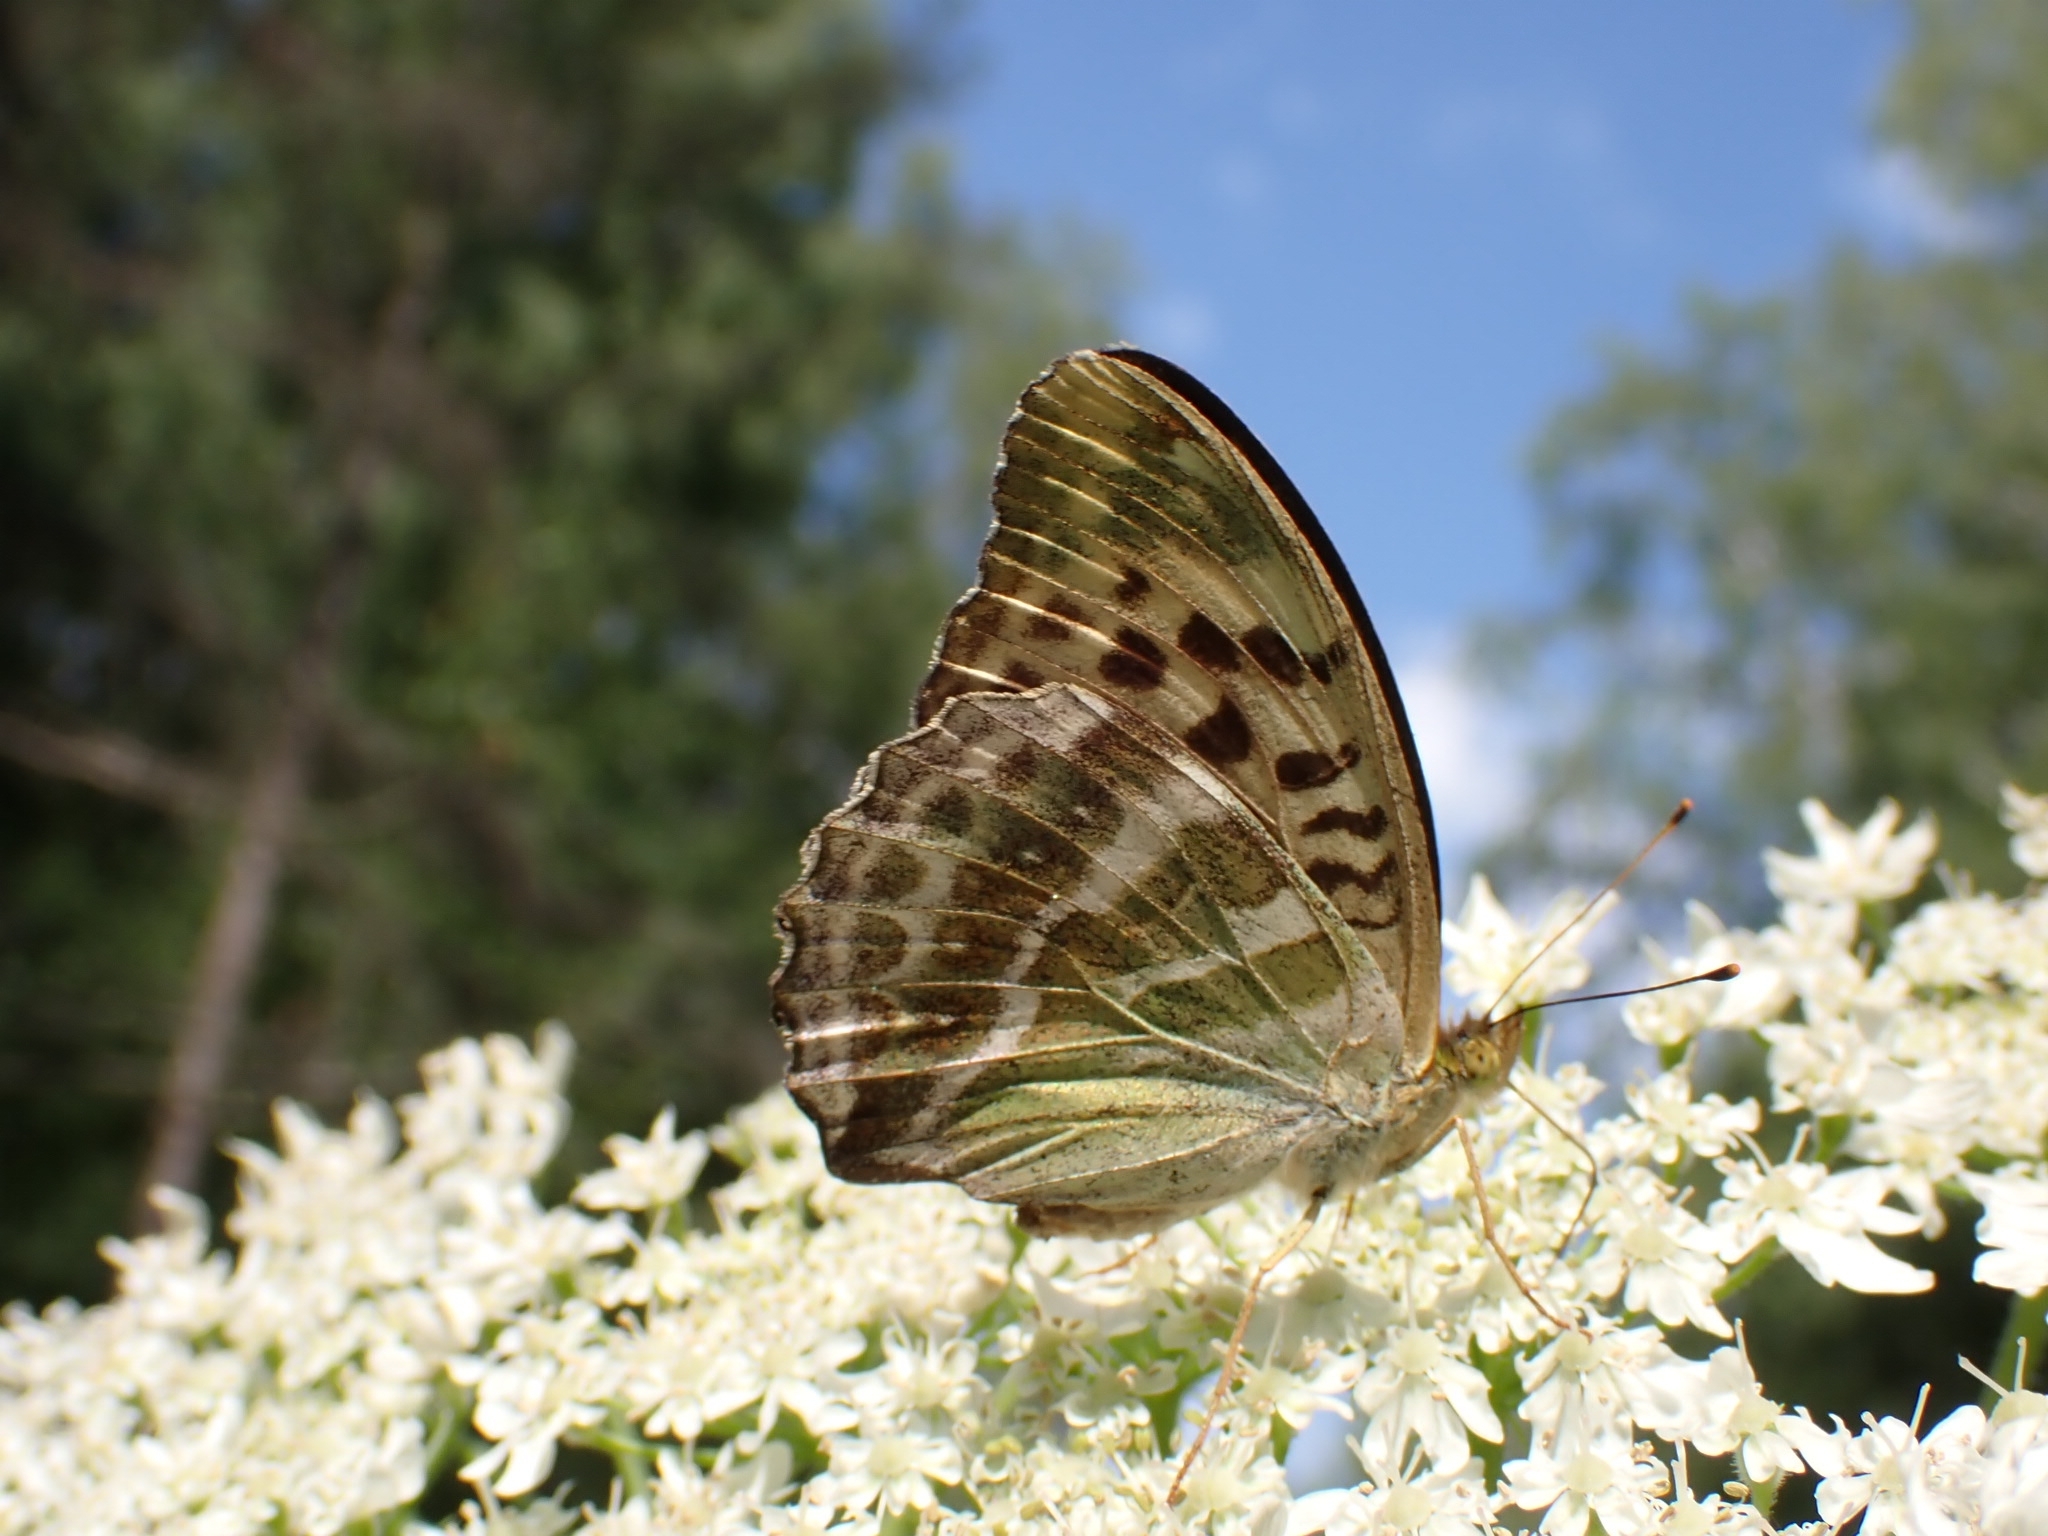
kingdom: Animalia
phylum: Arthropoda
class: Insecta
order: Lepidoptera
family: Nymphalidae
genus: Argynnis
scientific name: Argynnis paphia
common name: Silver-washed fritillary
